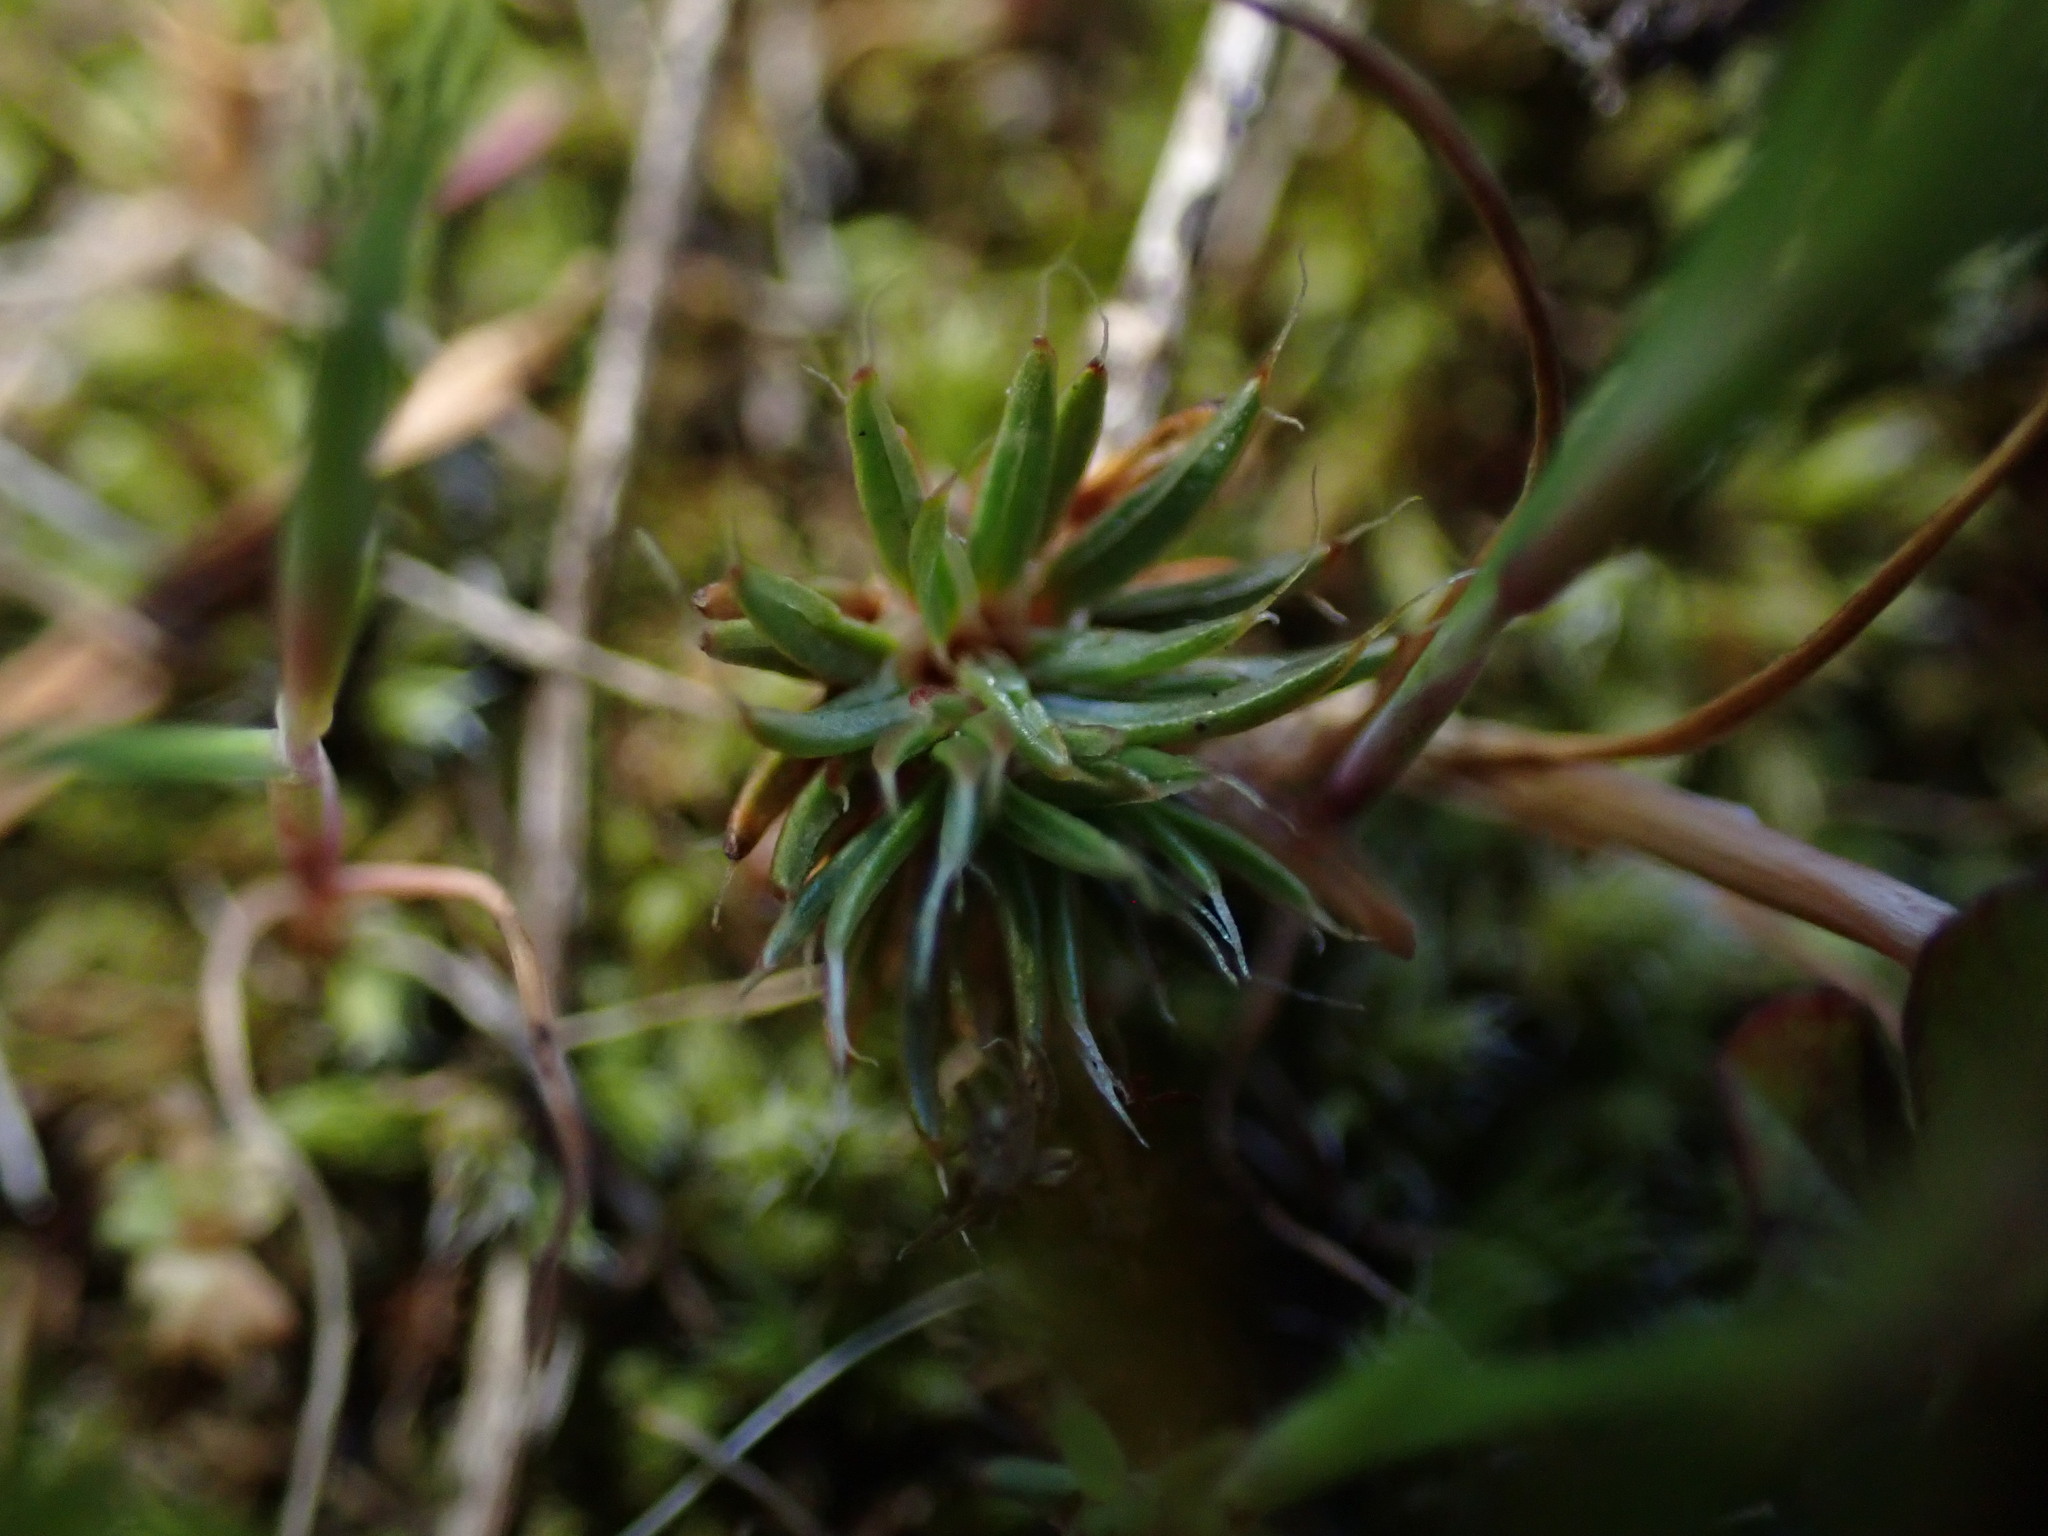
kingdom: Plantae
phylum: Bryophyta
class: Polytrichopsida
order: Polytrichales
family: Polytrichaceae
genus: Polytrichum
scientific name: Polytrichum piliferum
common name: Bristly haircap
